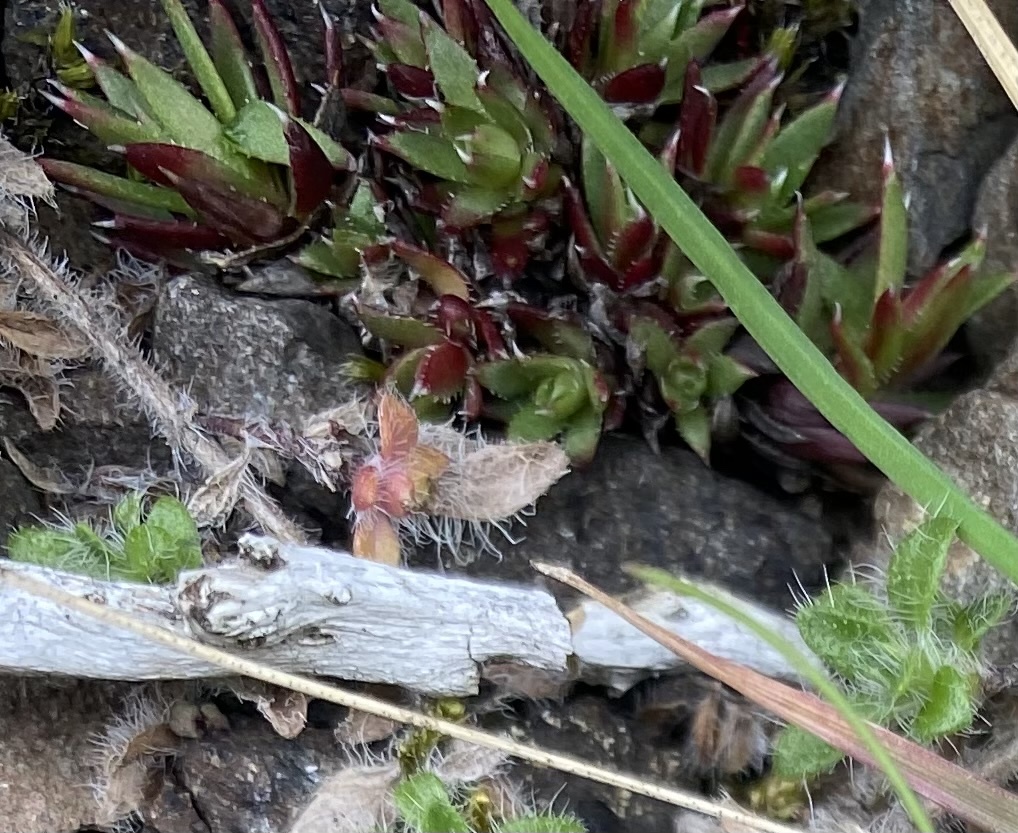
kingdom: Plantae
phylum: Tracheophyta
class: Magnoliopsida
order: Saxifragales
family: Saxifragaceae
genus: Saxifraga
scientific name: Saxifraga
